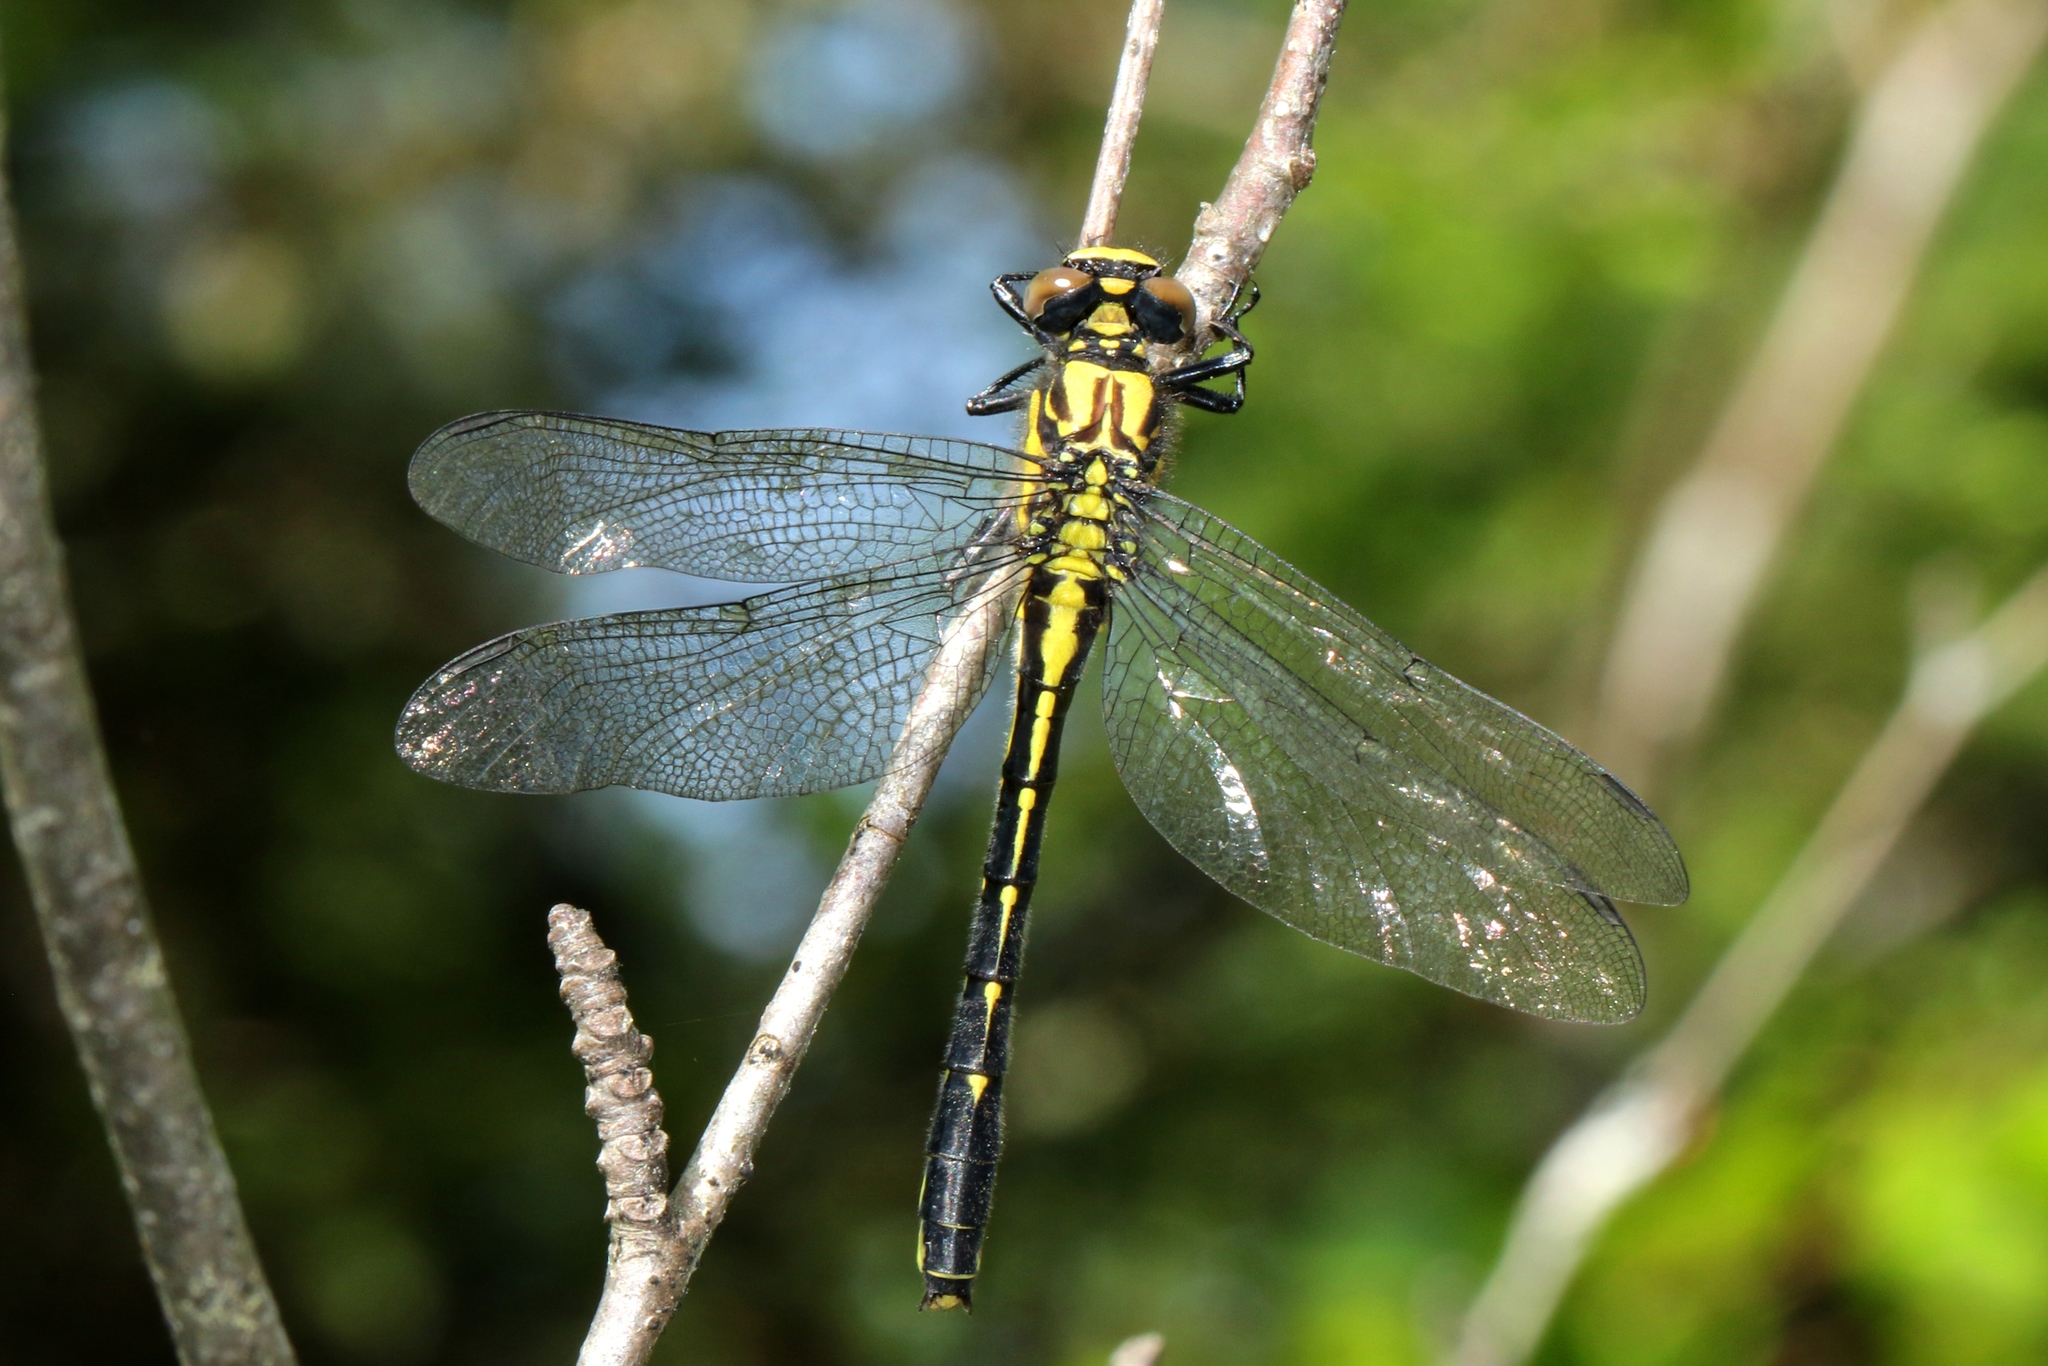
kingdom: Animalia
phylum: Arthropoda
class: Insecta
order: Odonata
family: Gomphidae
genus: Hylogomphus
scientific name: Hylogomphus adelphus
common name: Mustached clubtail
